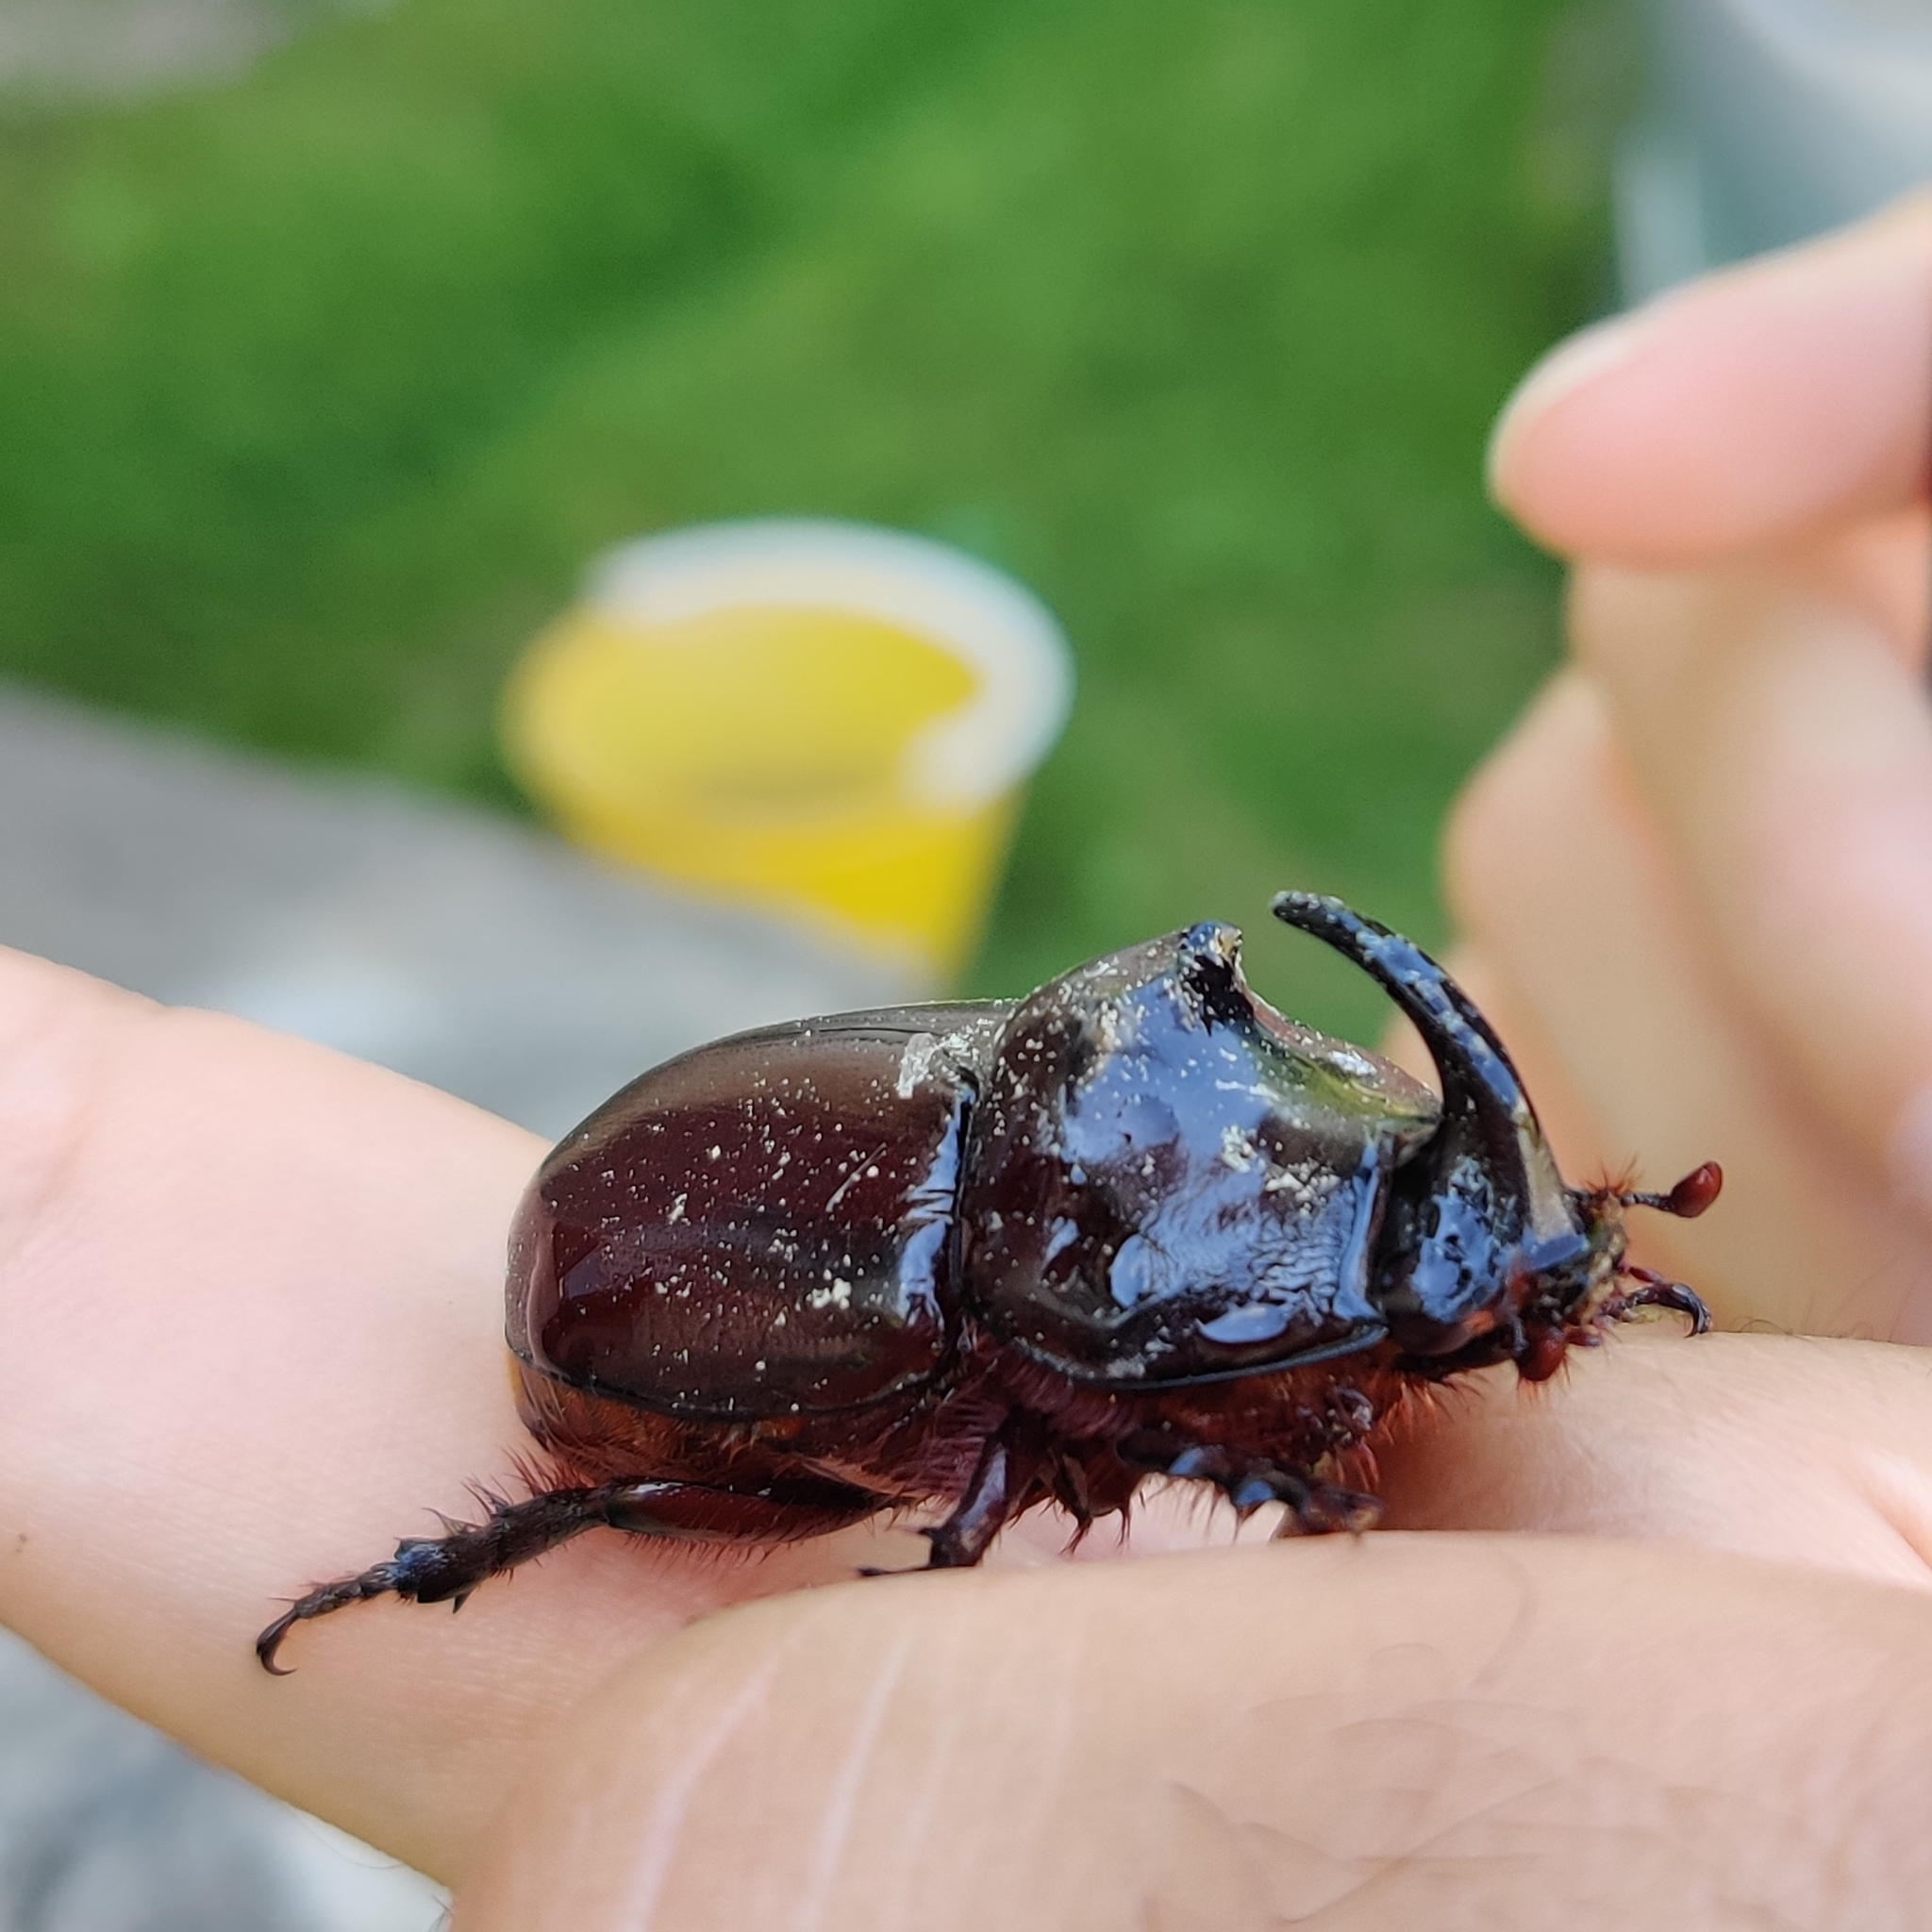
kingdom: Animalia
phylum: Arthropoda
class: Insecta
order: Coleoptera
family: Scarabaeidae
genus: Oryctes
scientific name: Oryctes nasicornis
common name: European rhinoceros beetle
